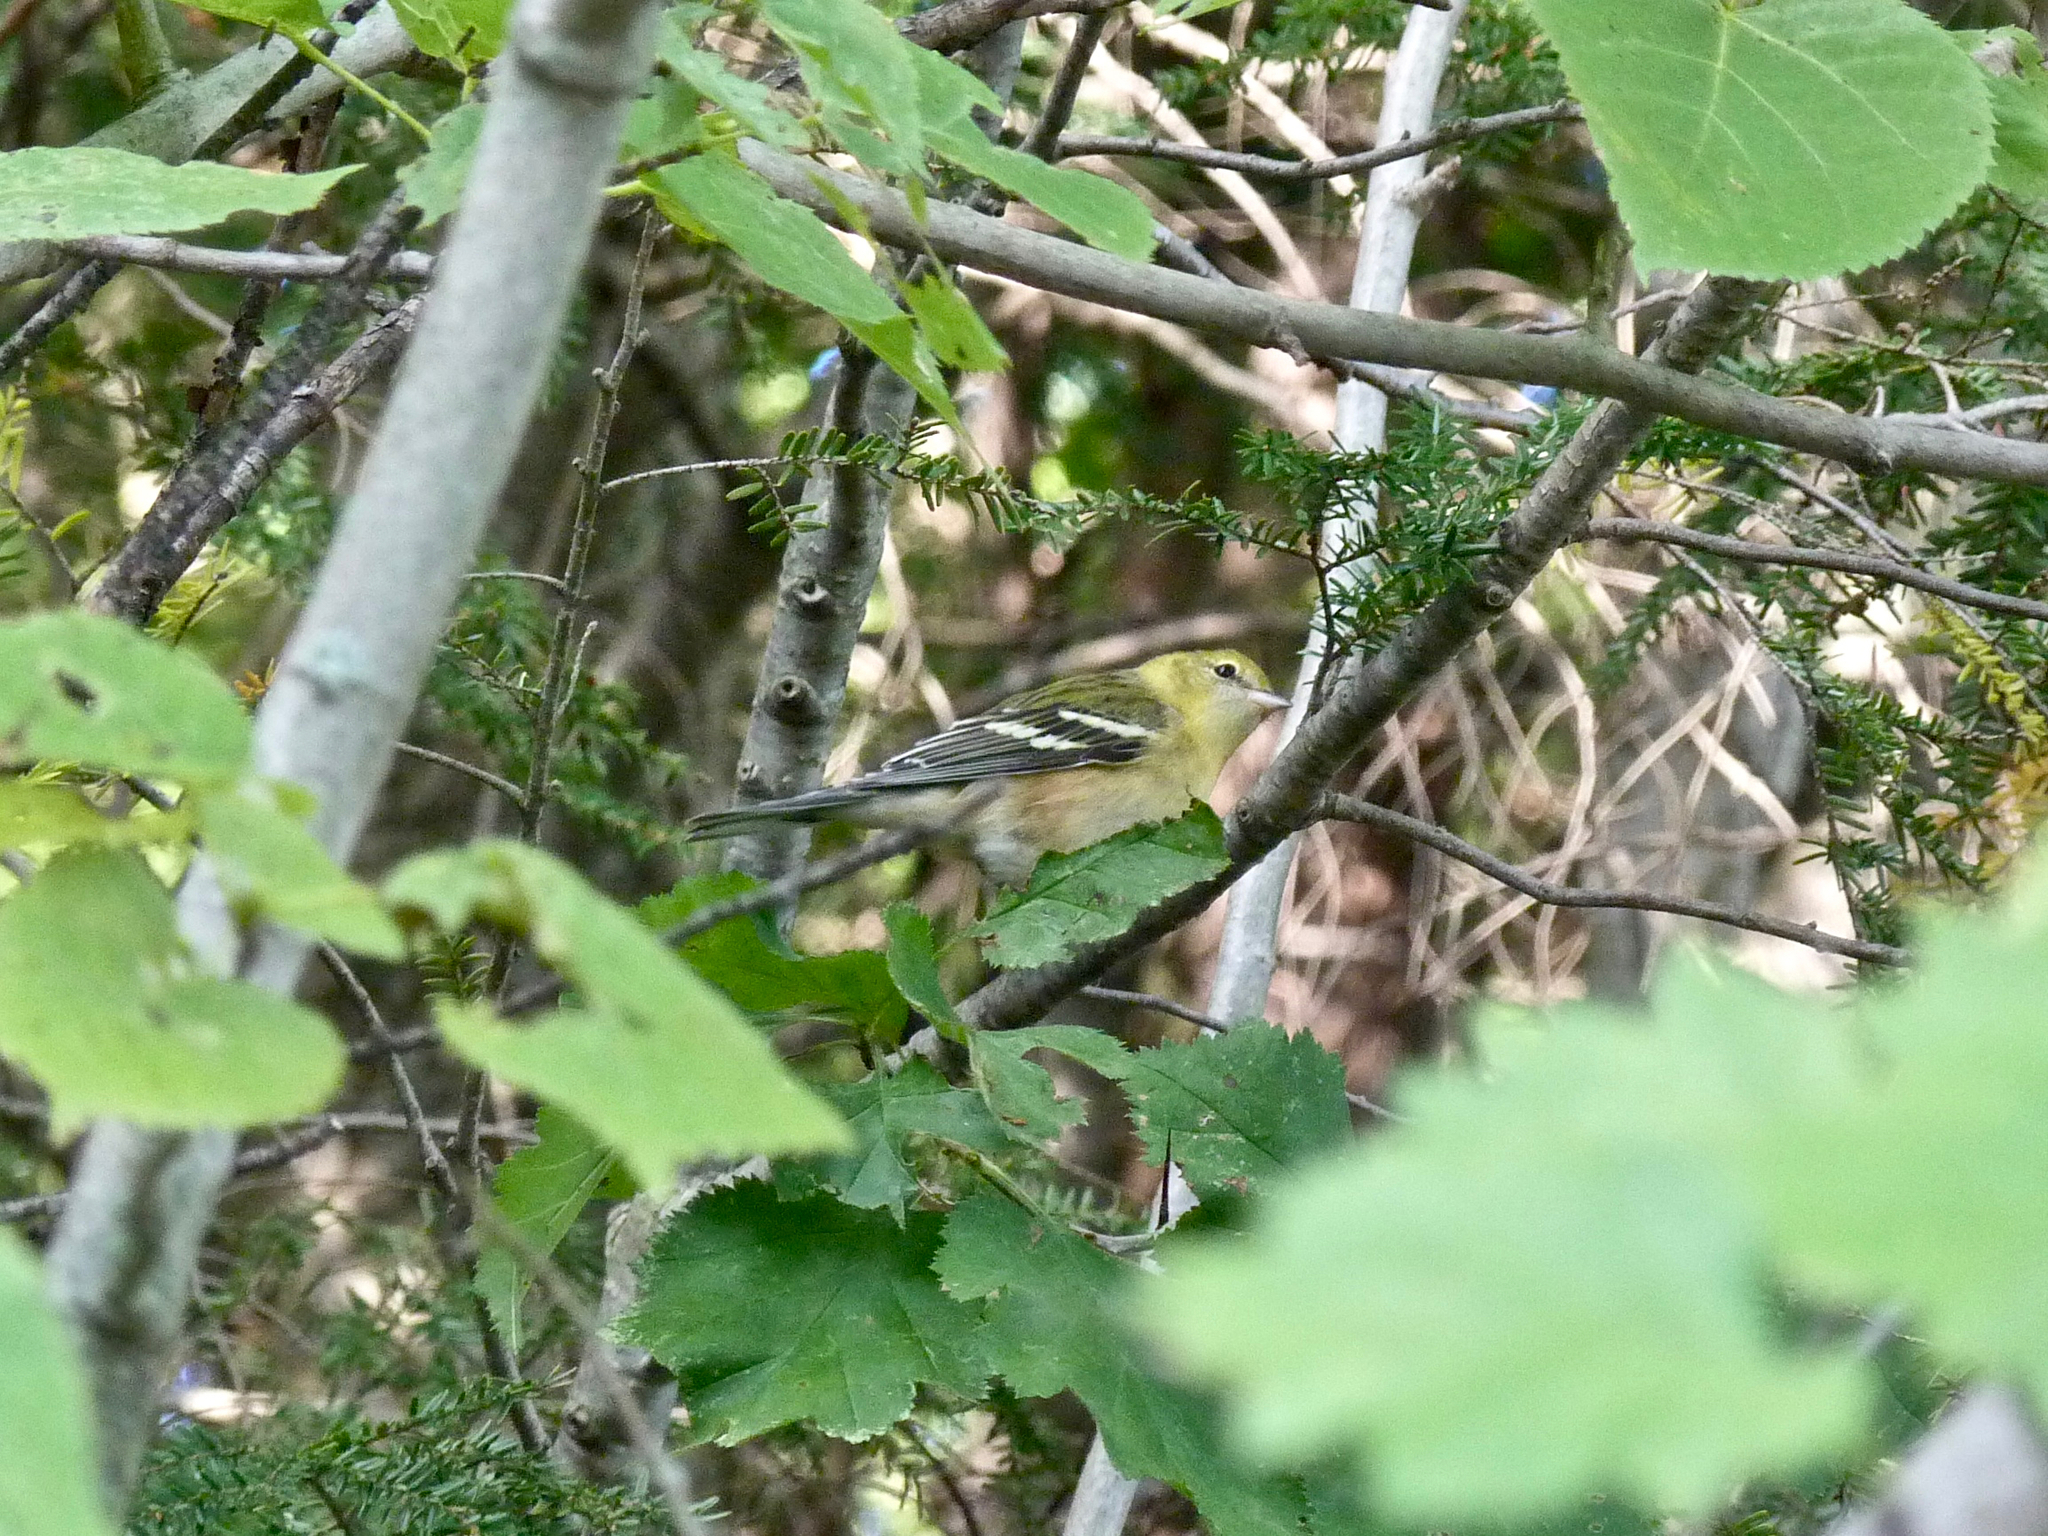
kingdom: Animalia
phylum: Chordata
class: Aves
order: Passeriformes
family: Parulidae
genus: Setophaga
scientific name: Setophaga castanea
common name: Bay-breasted warbler
